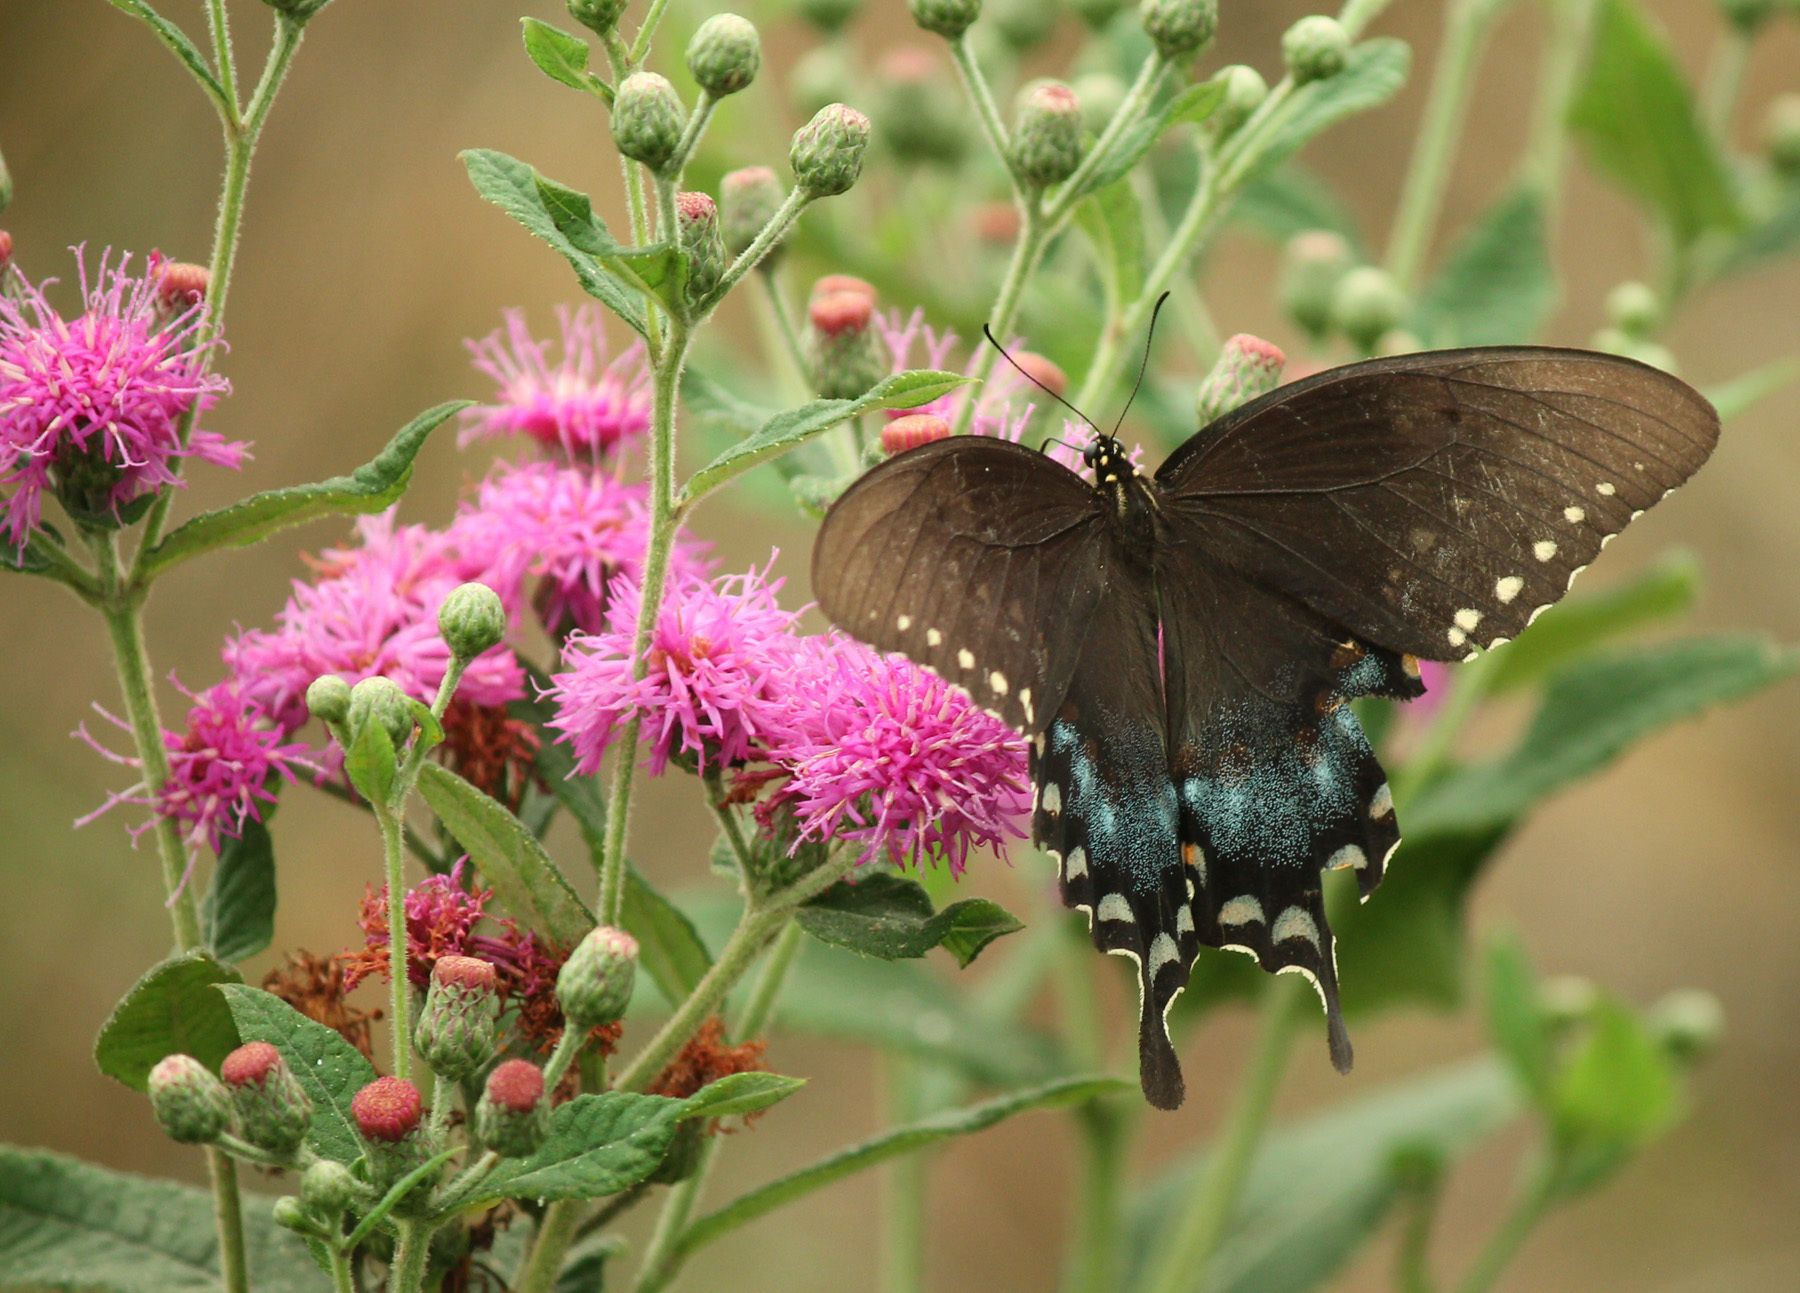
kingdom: Animalia
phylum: Arthropoda
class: Insecta
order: Lepidoptera
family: Papilionidae
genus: Papilio
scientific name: Papilio troilus
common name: Spicebush swallowtail
